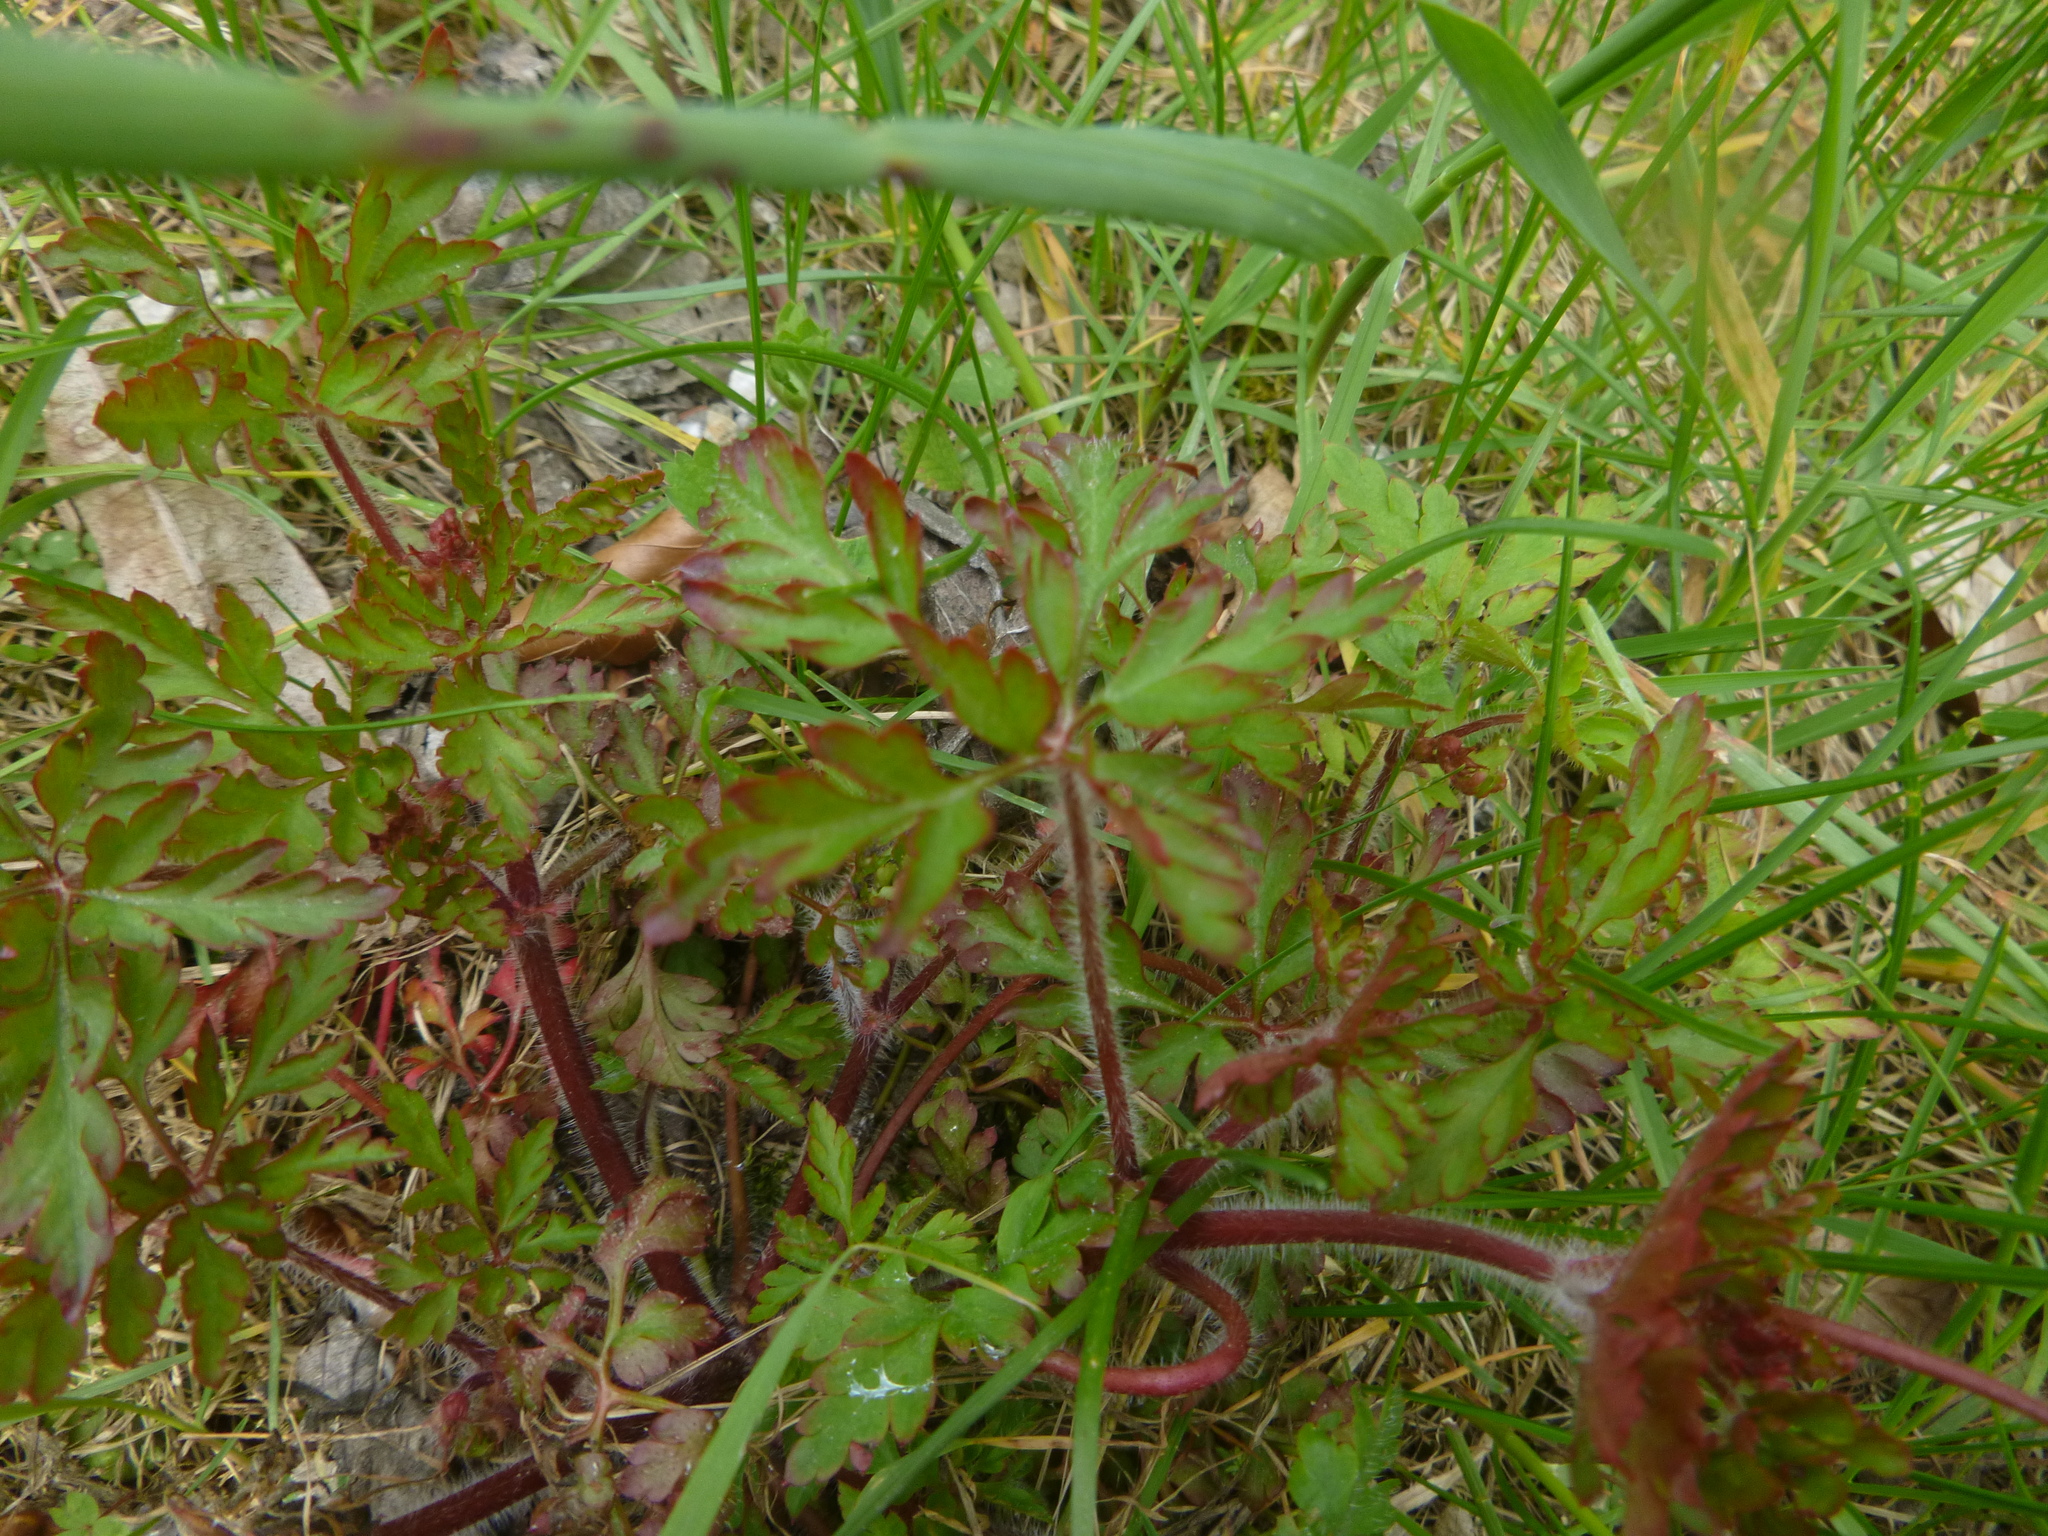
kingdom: Plantae
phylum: Tracheophyta
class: Magnoliopsida
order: Geraniales
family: Geraniaceae
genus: Geranium
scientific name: Geranium robertianum
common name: Herb-robert
